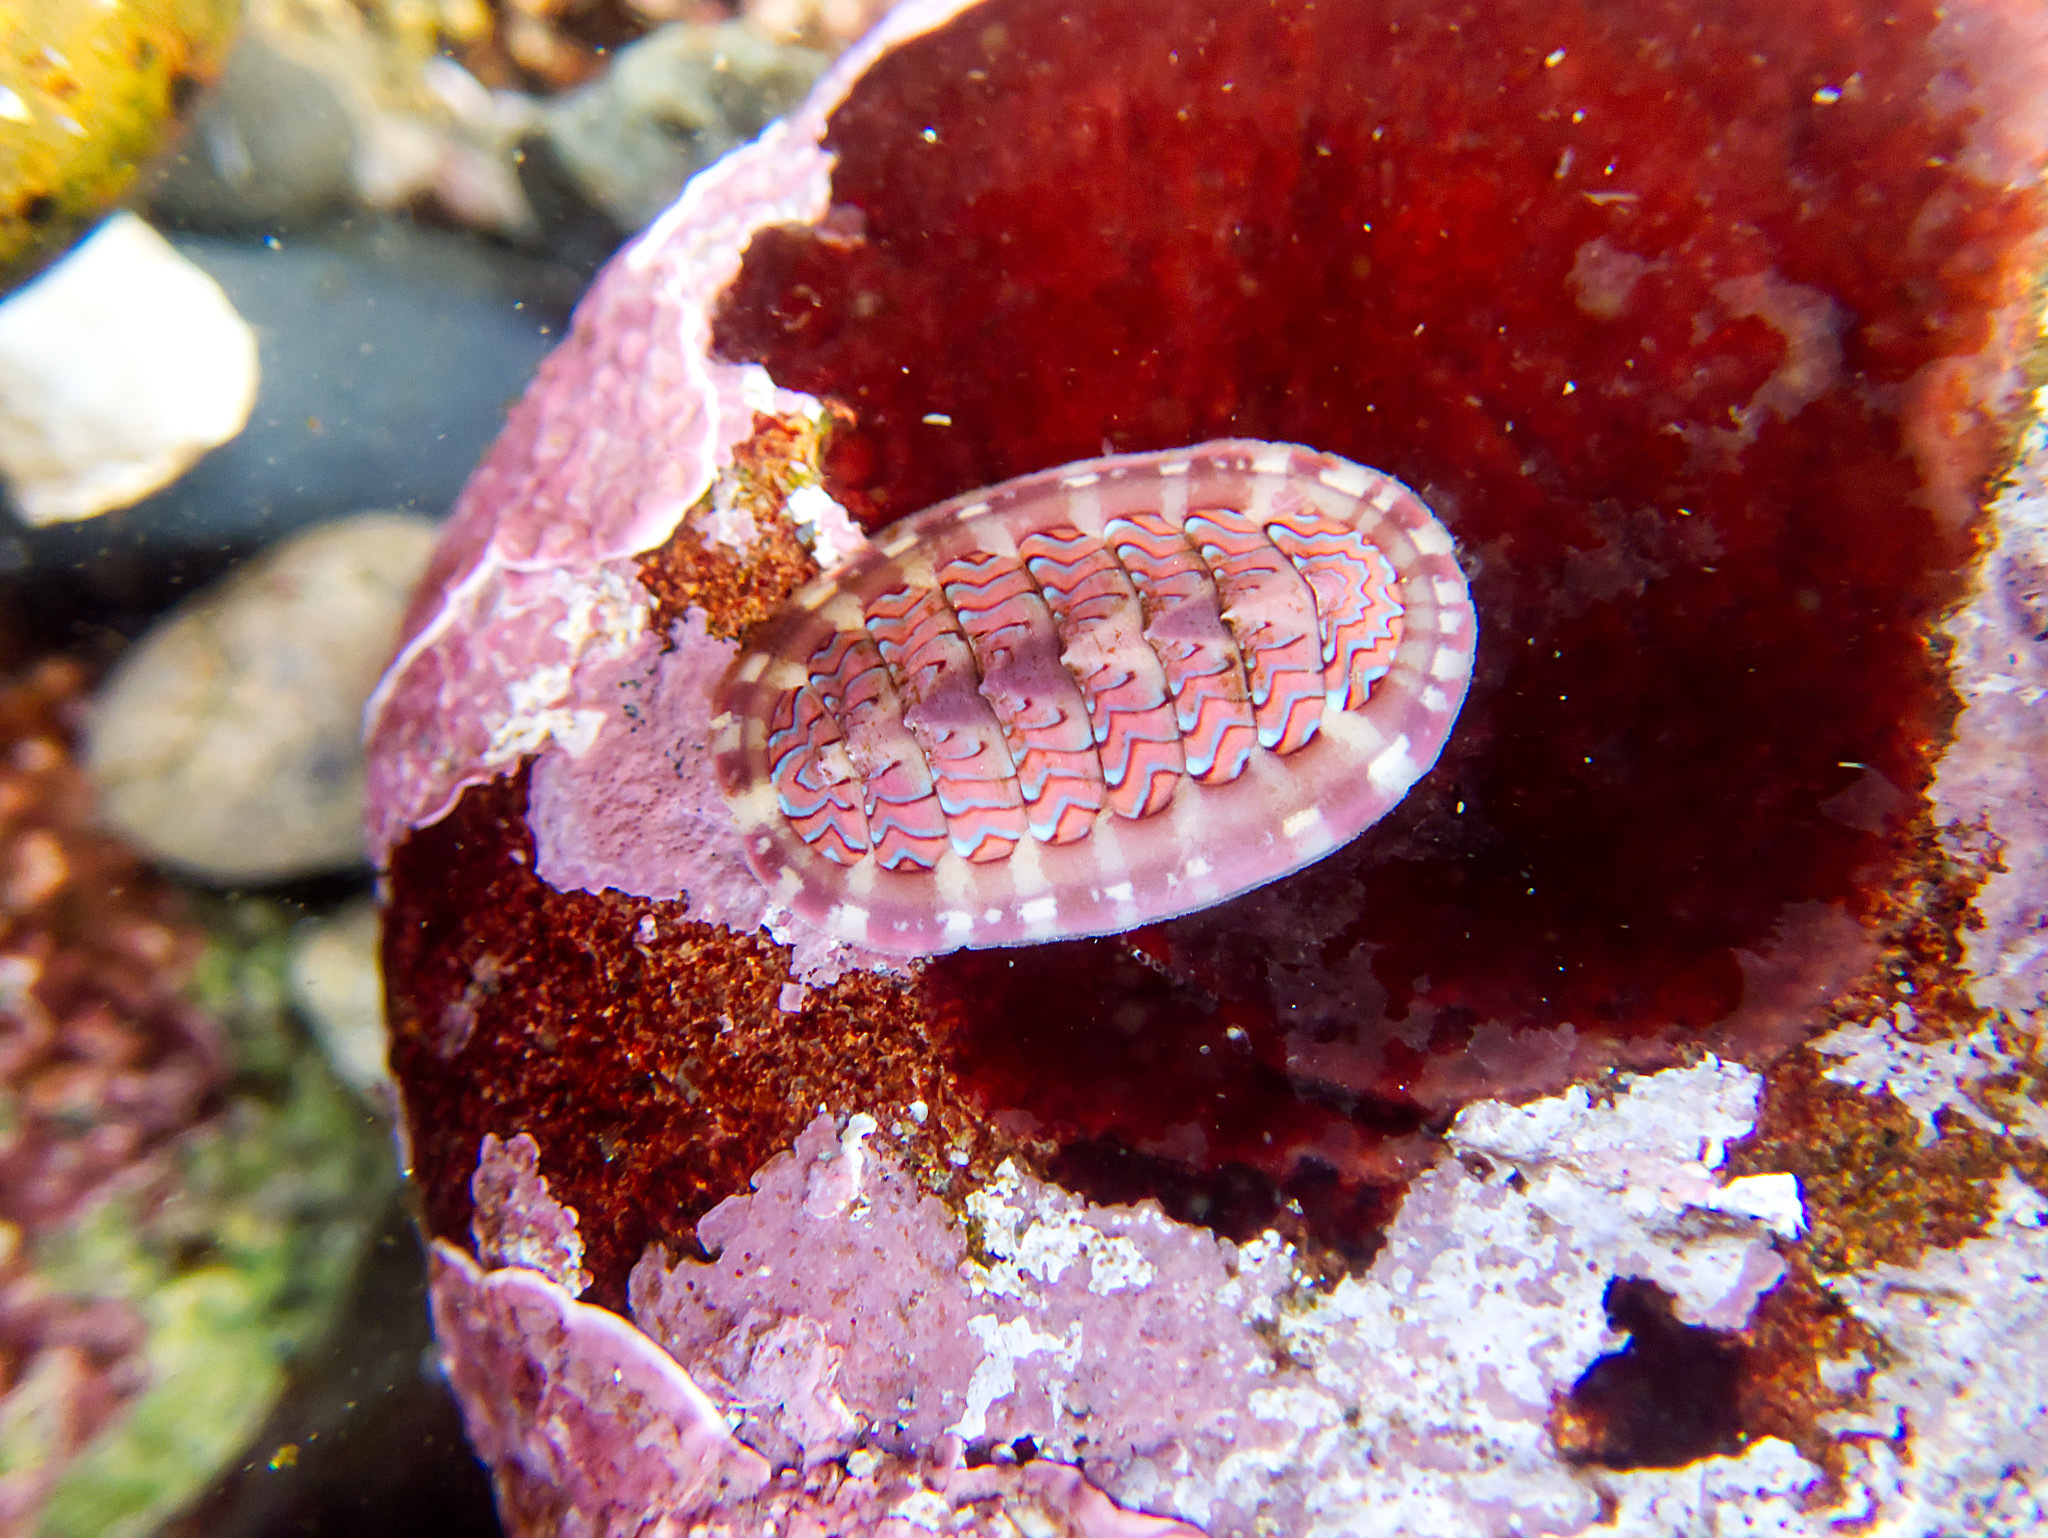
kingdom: Animalia
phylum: Mollusca
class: Polyplacophora
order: Chitonida
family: Tonicellidae
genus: Tonicella
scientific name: Tonicella lokii
